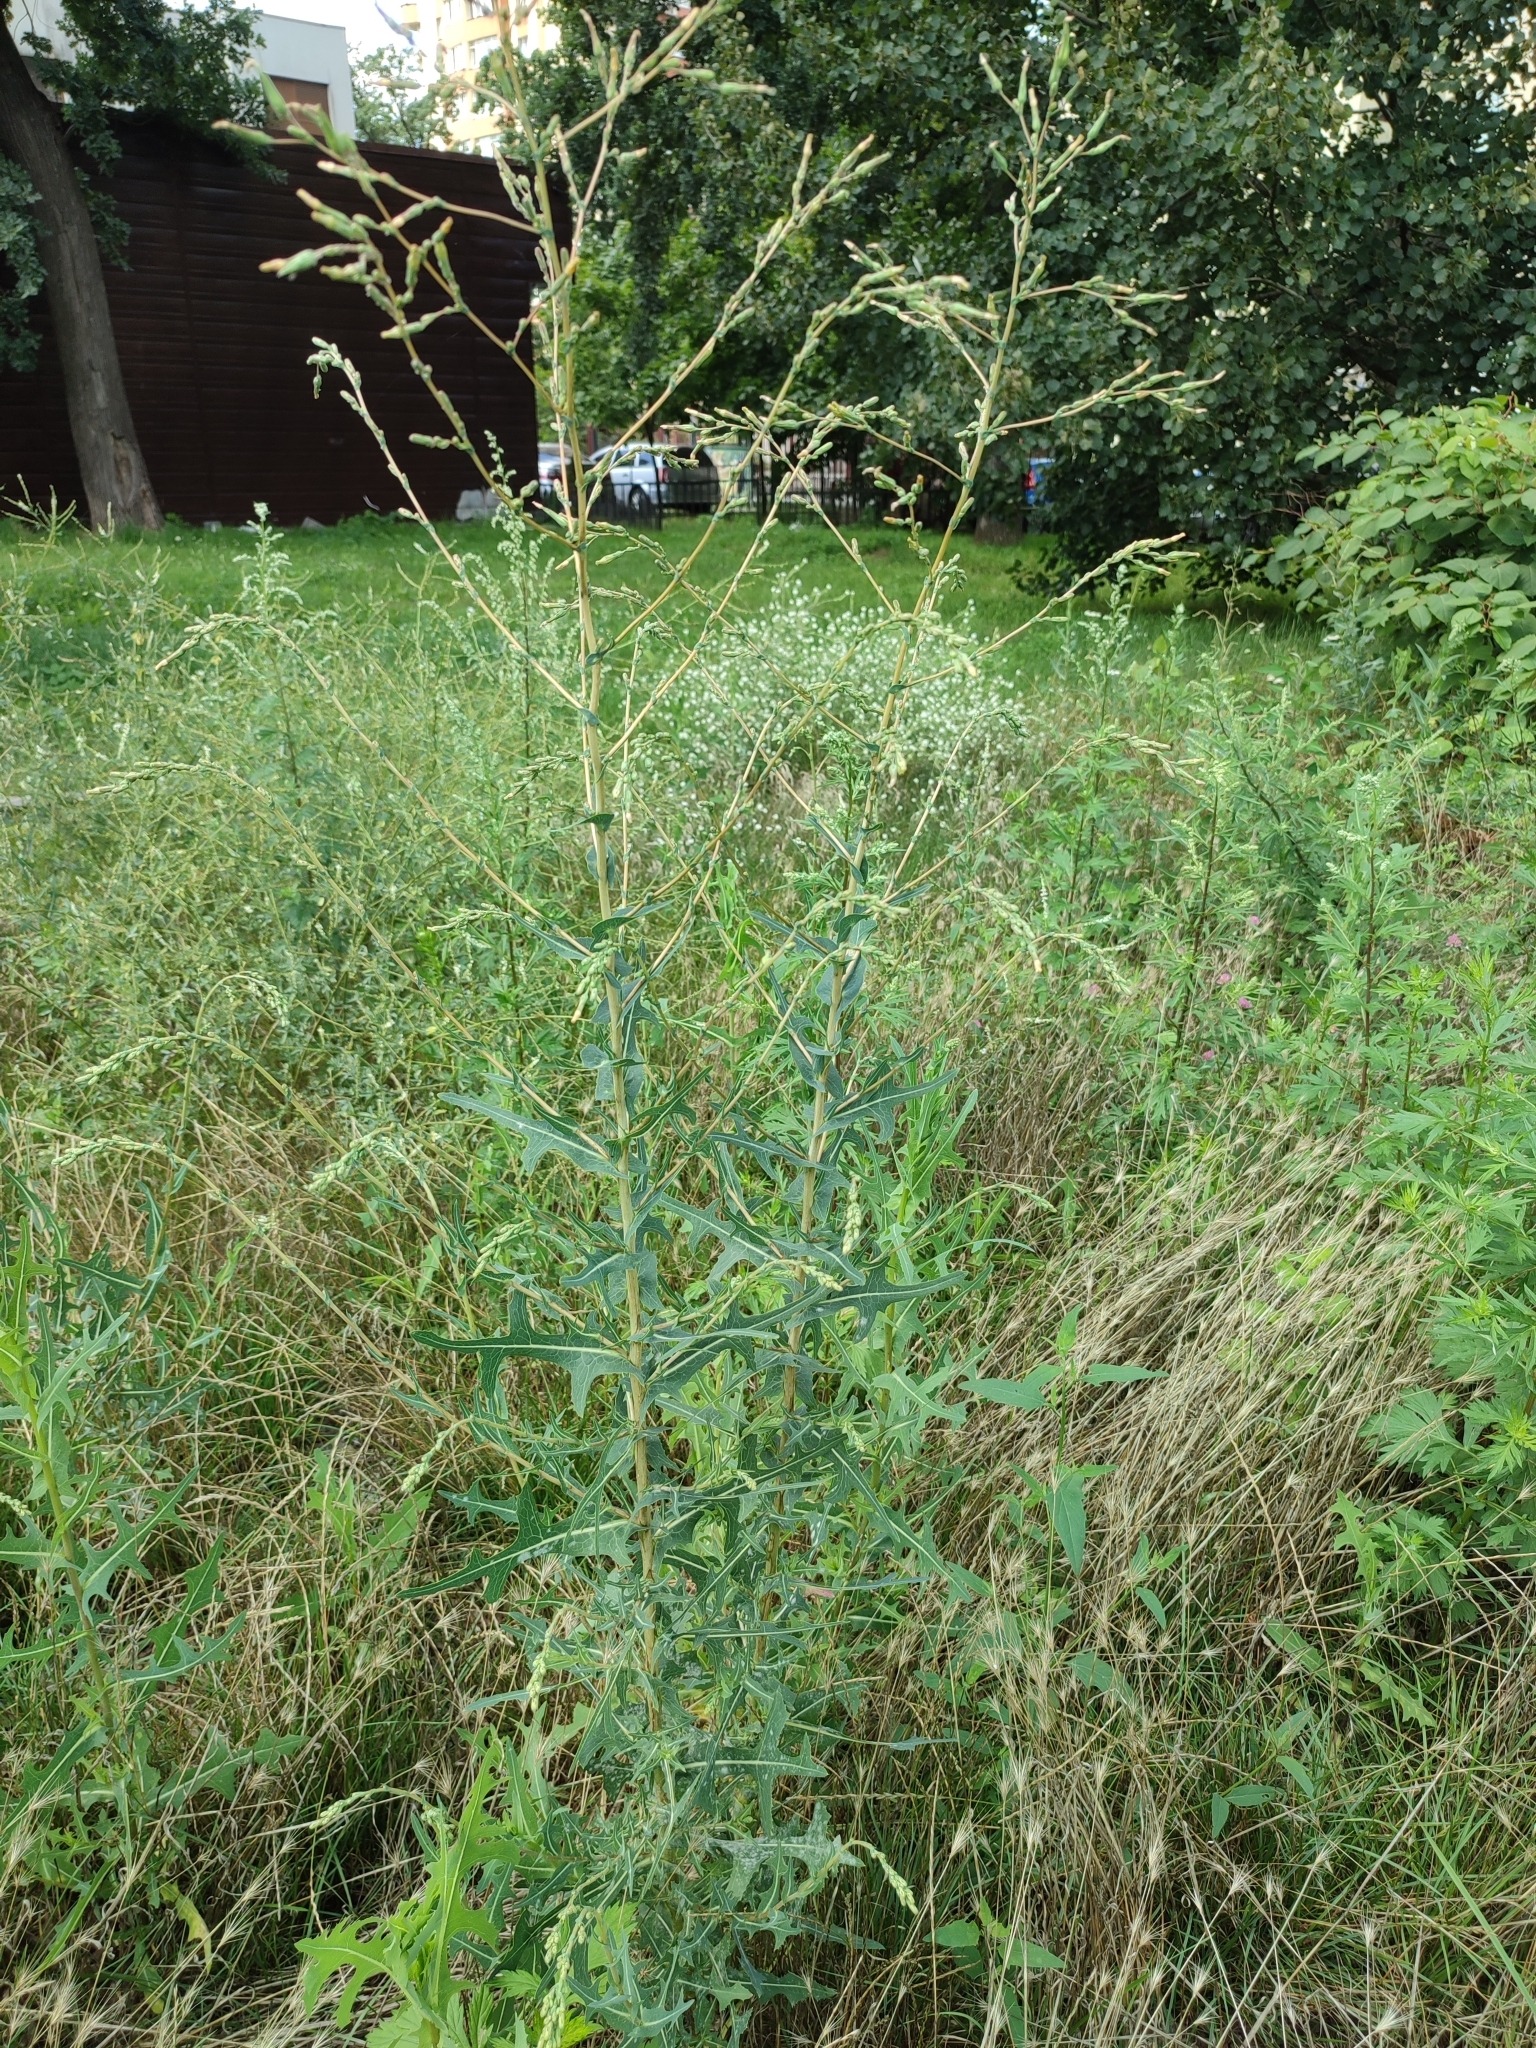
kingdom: Plantae
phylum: Tracheophyta
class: Magnoliopsida
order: Asterales
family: Asteraceae
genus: Lactuca
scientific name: Lactuca serriola
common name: Prickly lettuce
